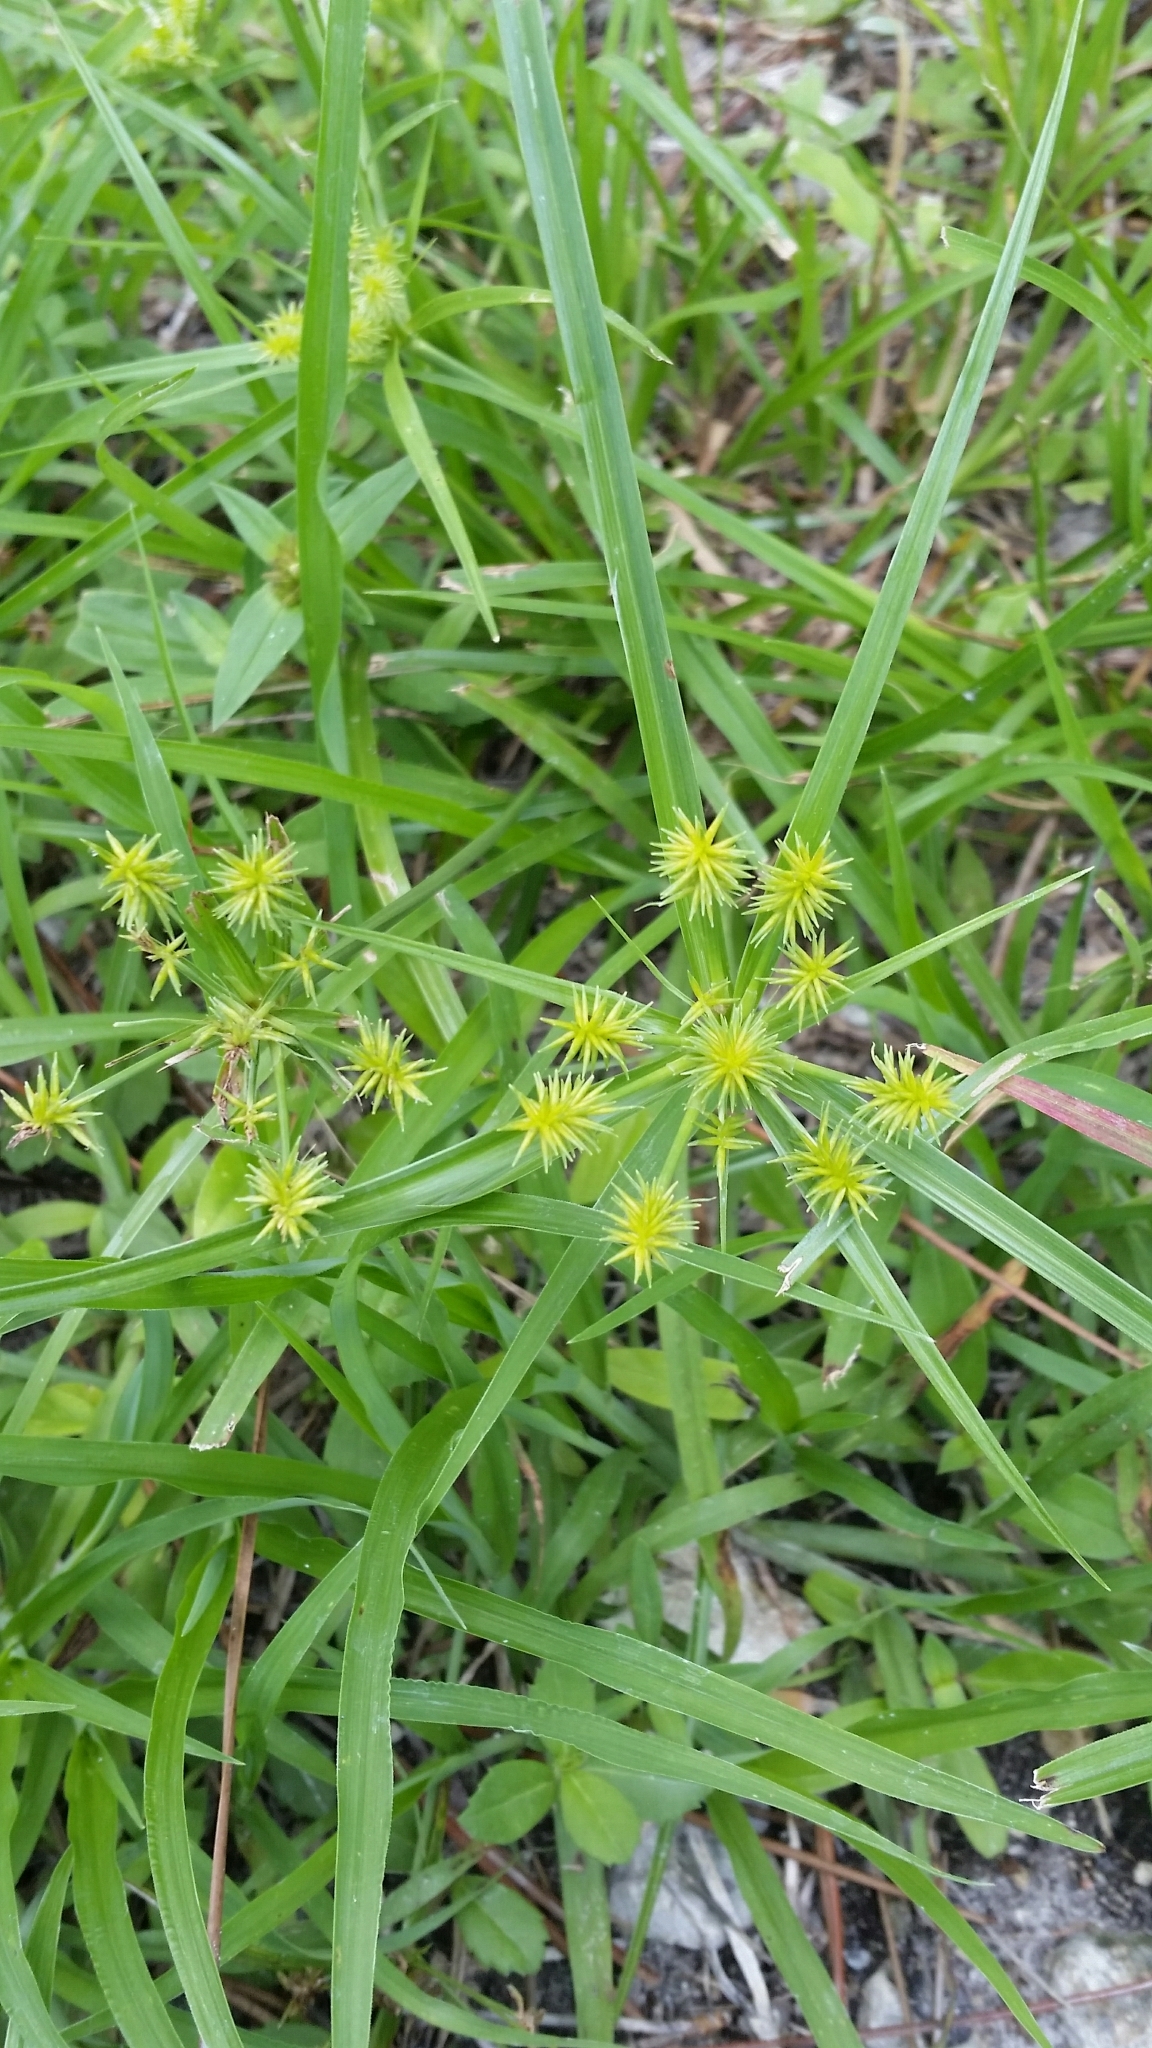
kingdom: Plantae
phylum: Tracheophyta
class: Liliopsida
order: Poales
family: Cyperaceae
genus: Cyperus
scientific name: Cyperus croceus
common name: Baldwin's flatsedge
